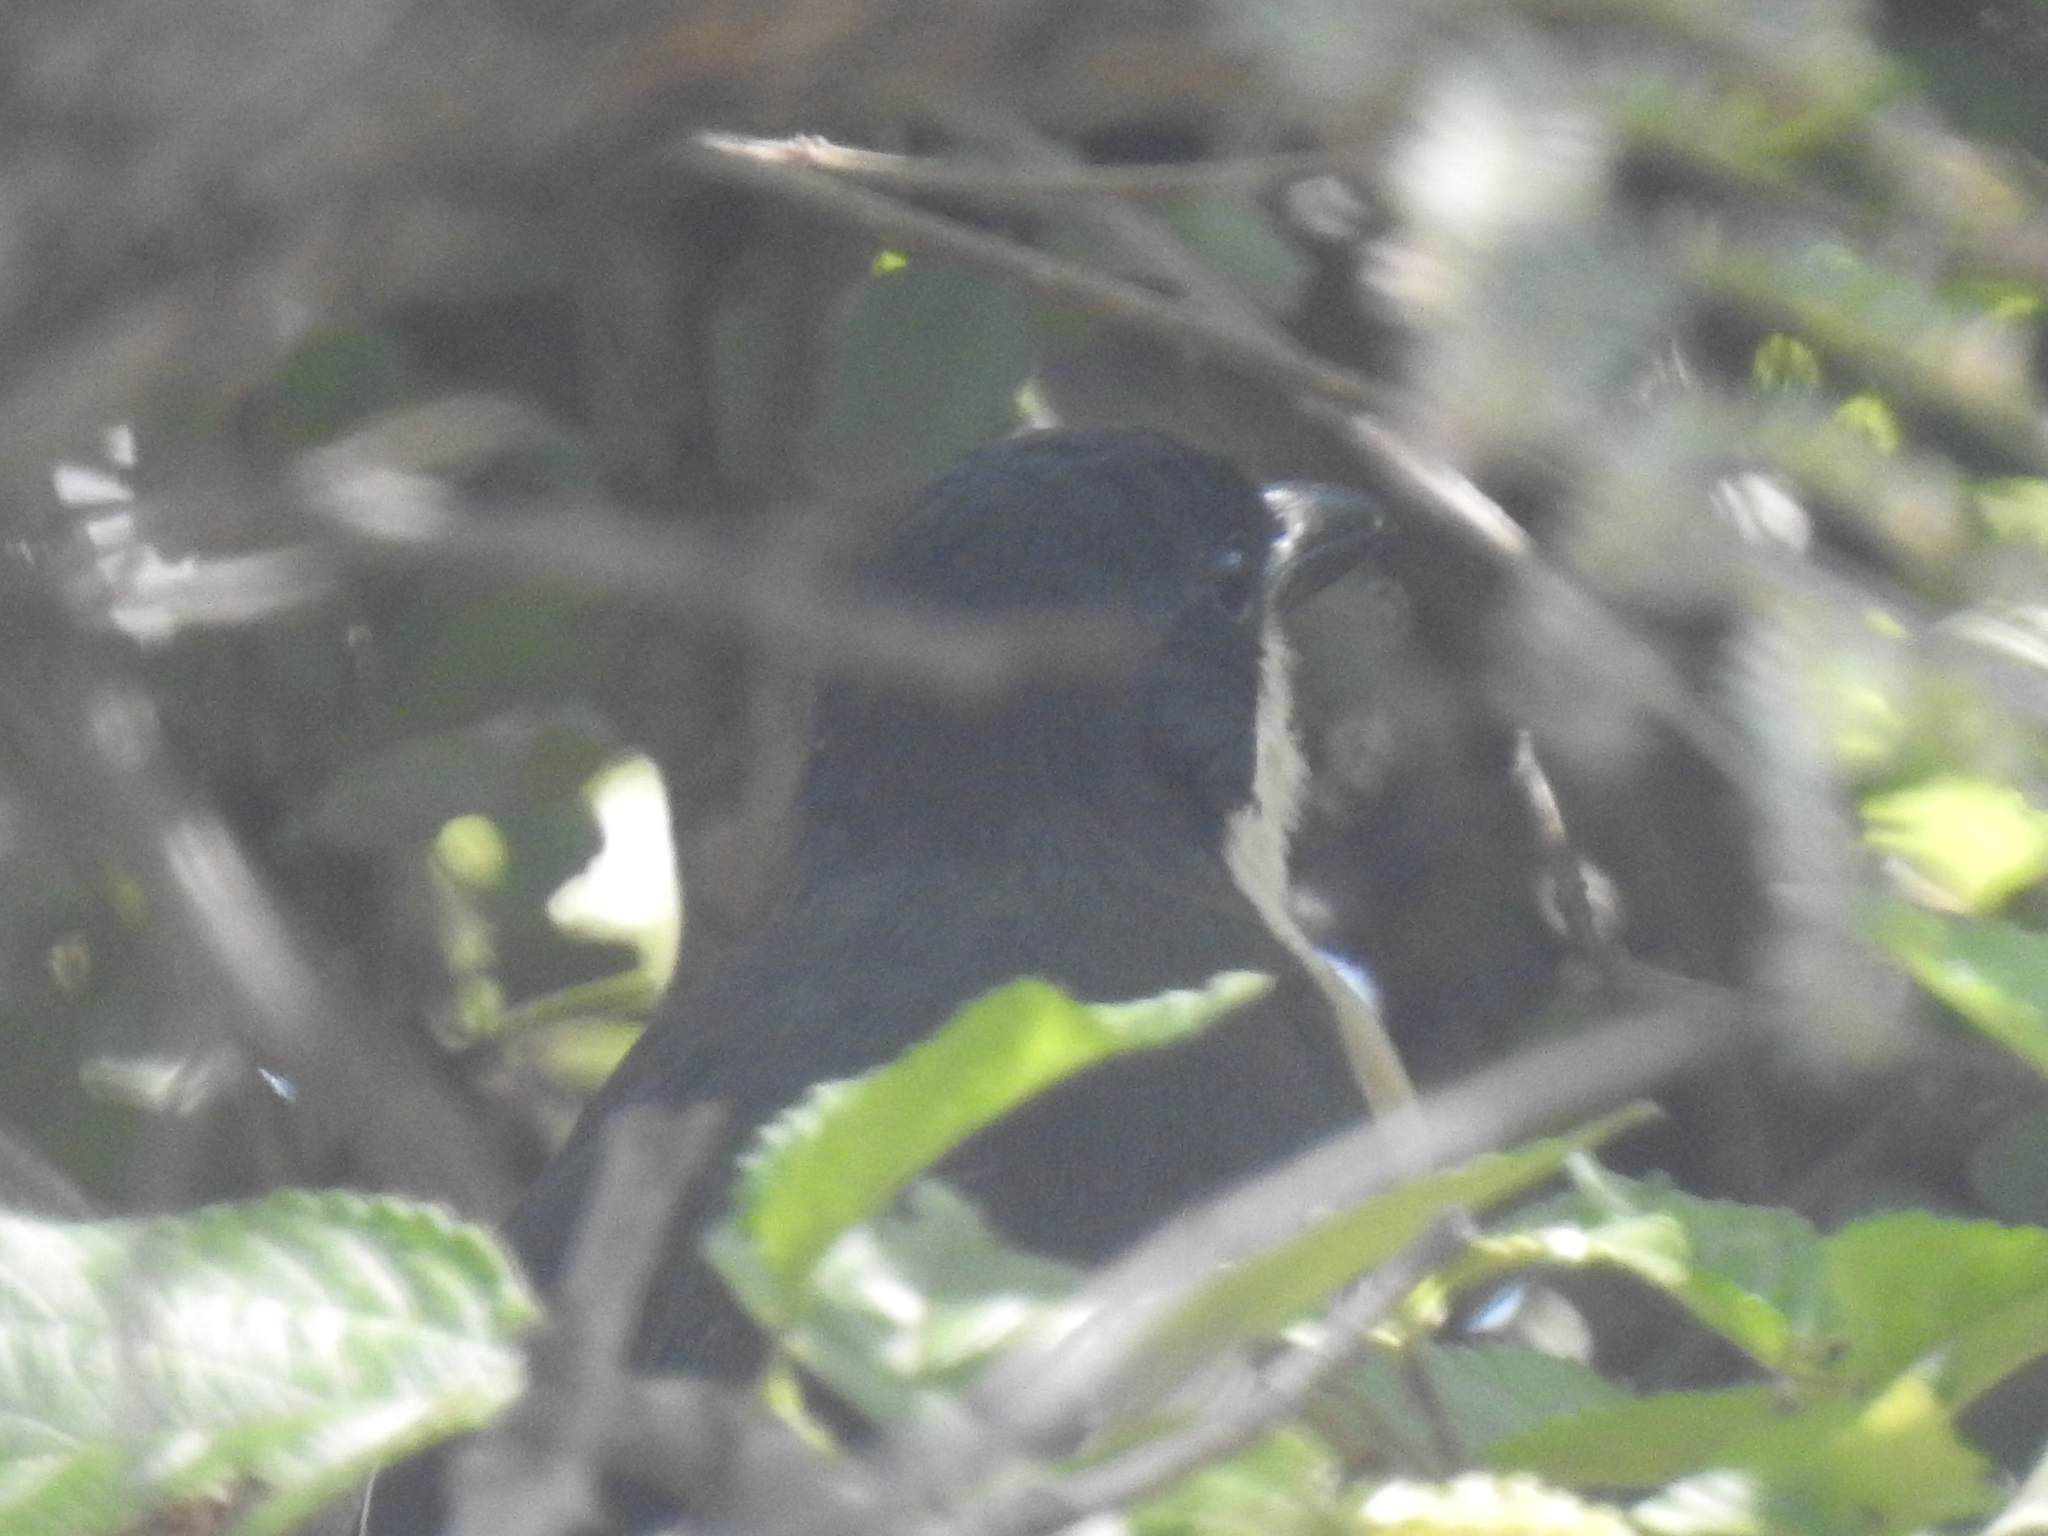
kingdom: Animalia
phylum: Chordata
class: Aves
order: Passeriformes
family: Malaconotidae
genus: Laniarius
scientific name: Laniarius ferrugineus
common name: Southern boubou
